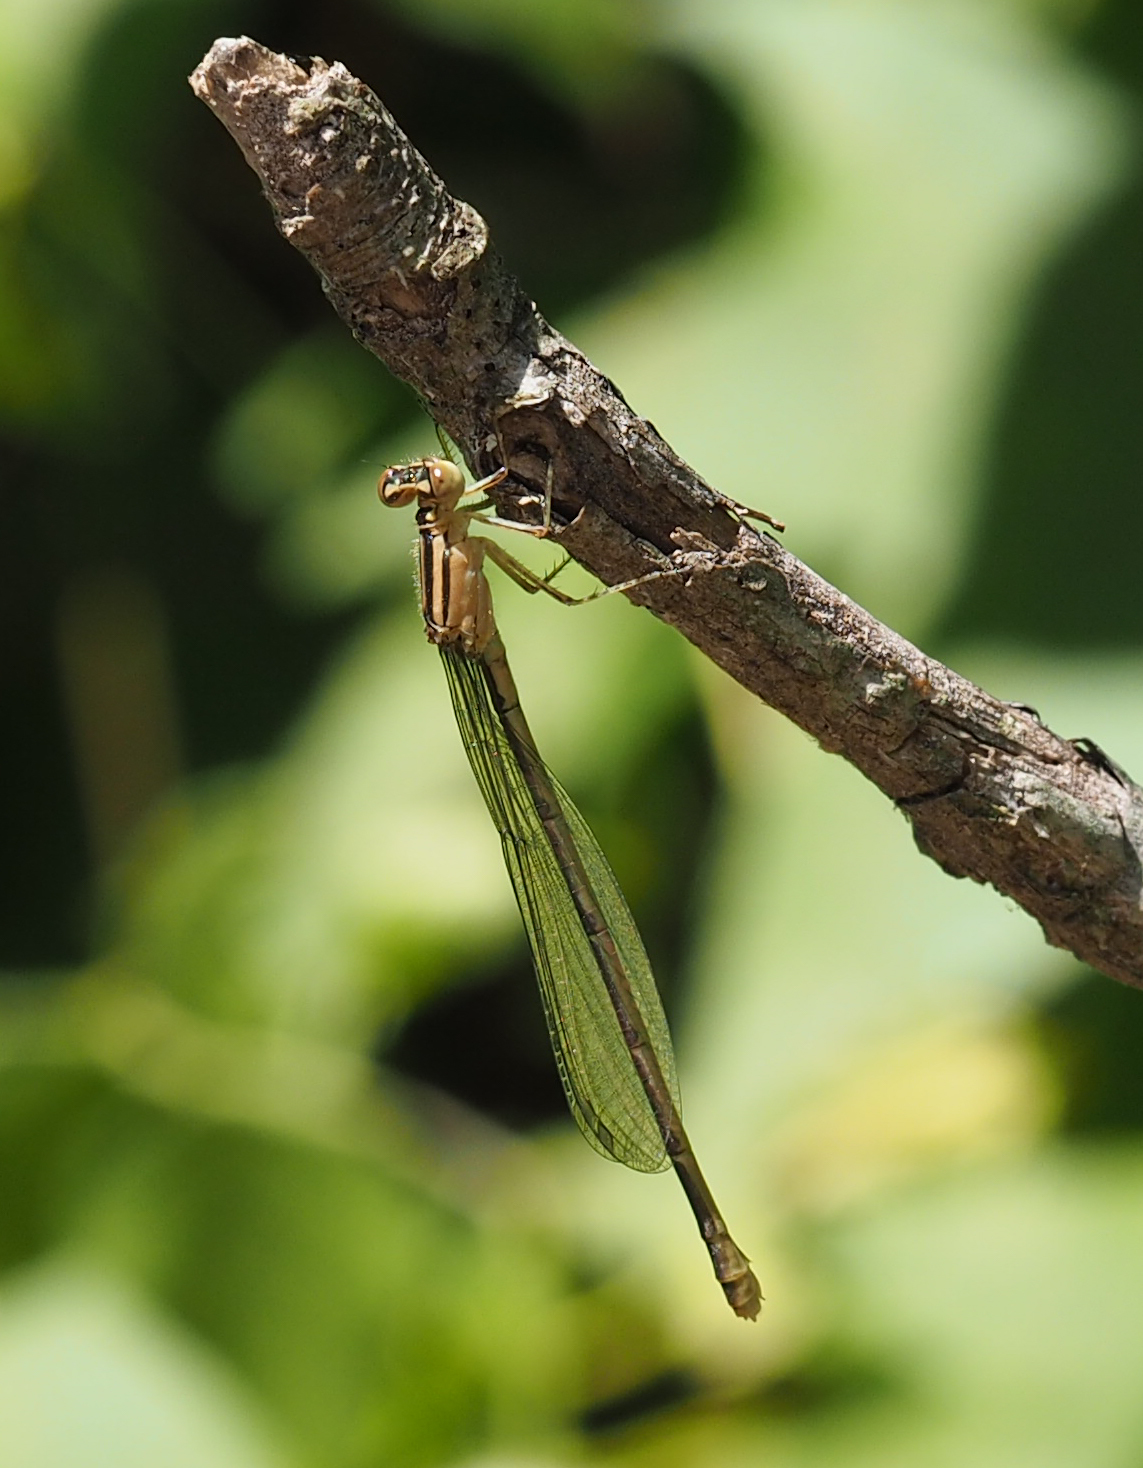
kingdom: Animalia
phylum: Arthropoda
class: Insecta
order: Odonata
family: Coenagrionidae
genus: Enallagma
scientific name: Enallagma durum
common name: Big bluet
